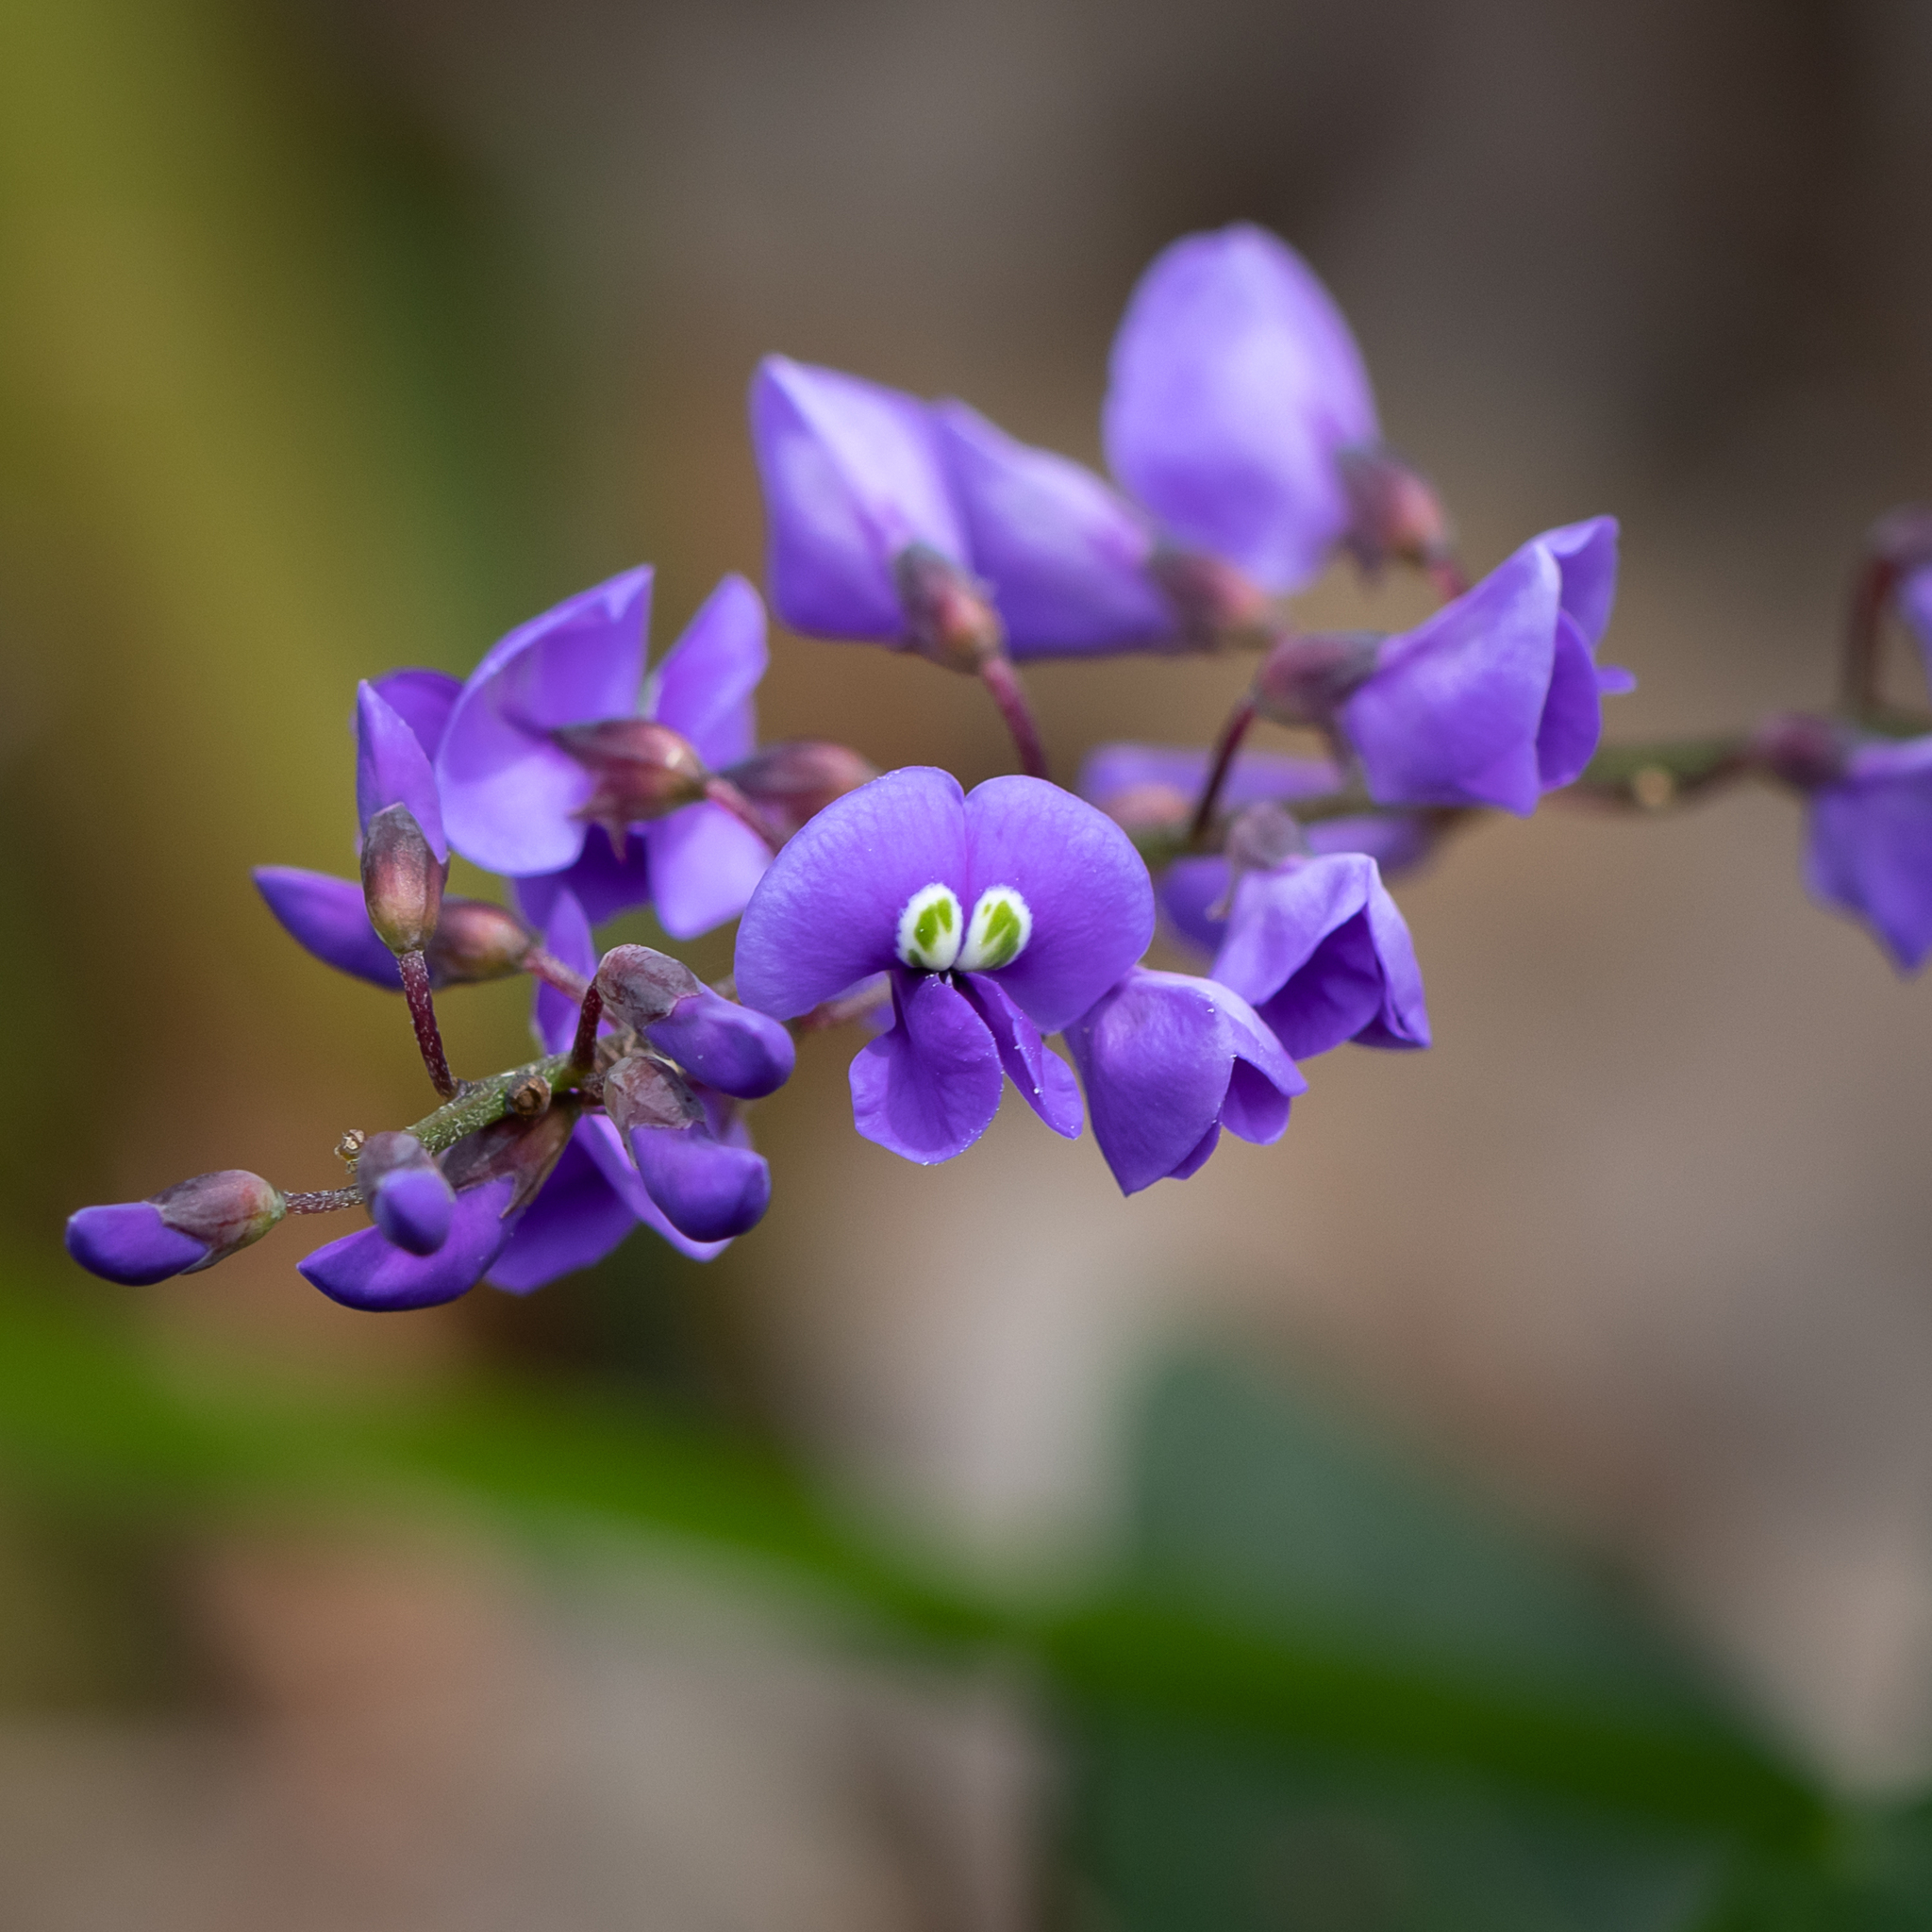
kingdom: Plantae
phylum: Tracheophyta
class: Magnoliopsida
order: Fabales
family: Fabaceae
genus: Hardenbergia
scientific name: Hardenbergia comptoniana
